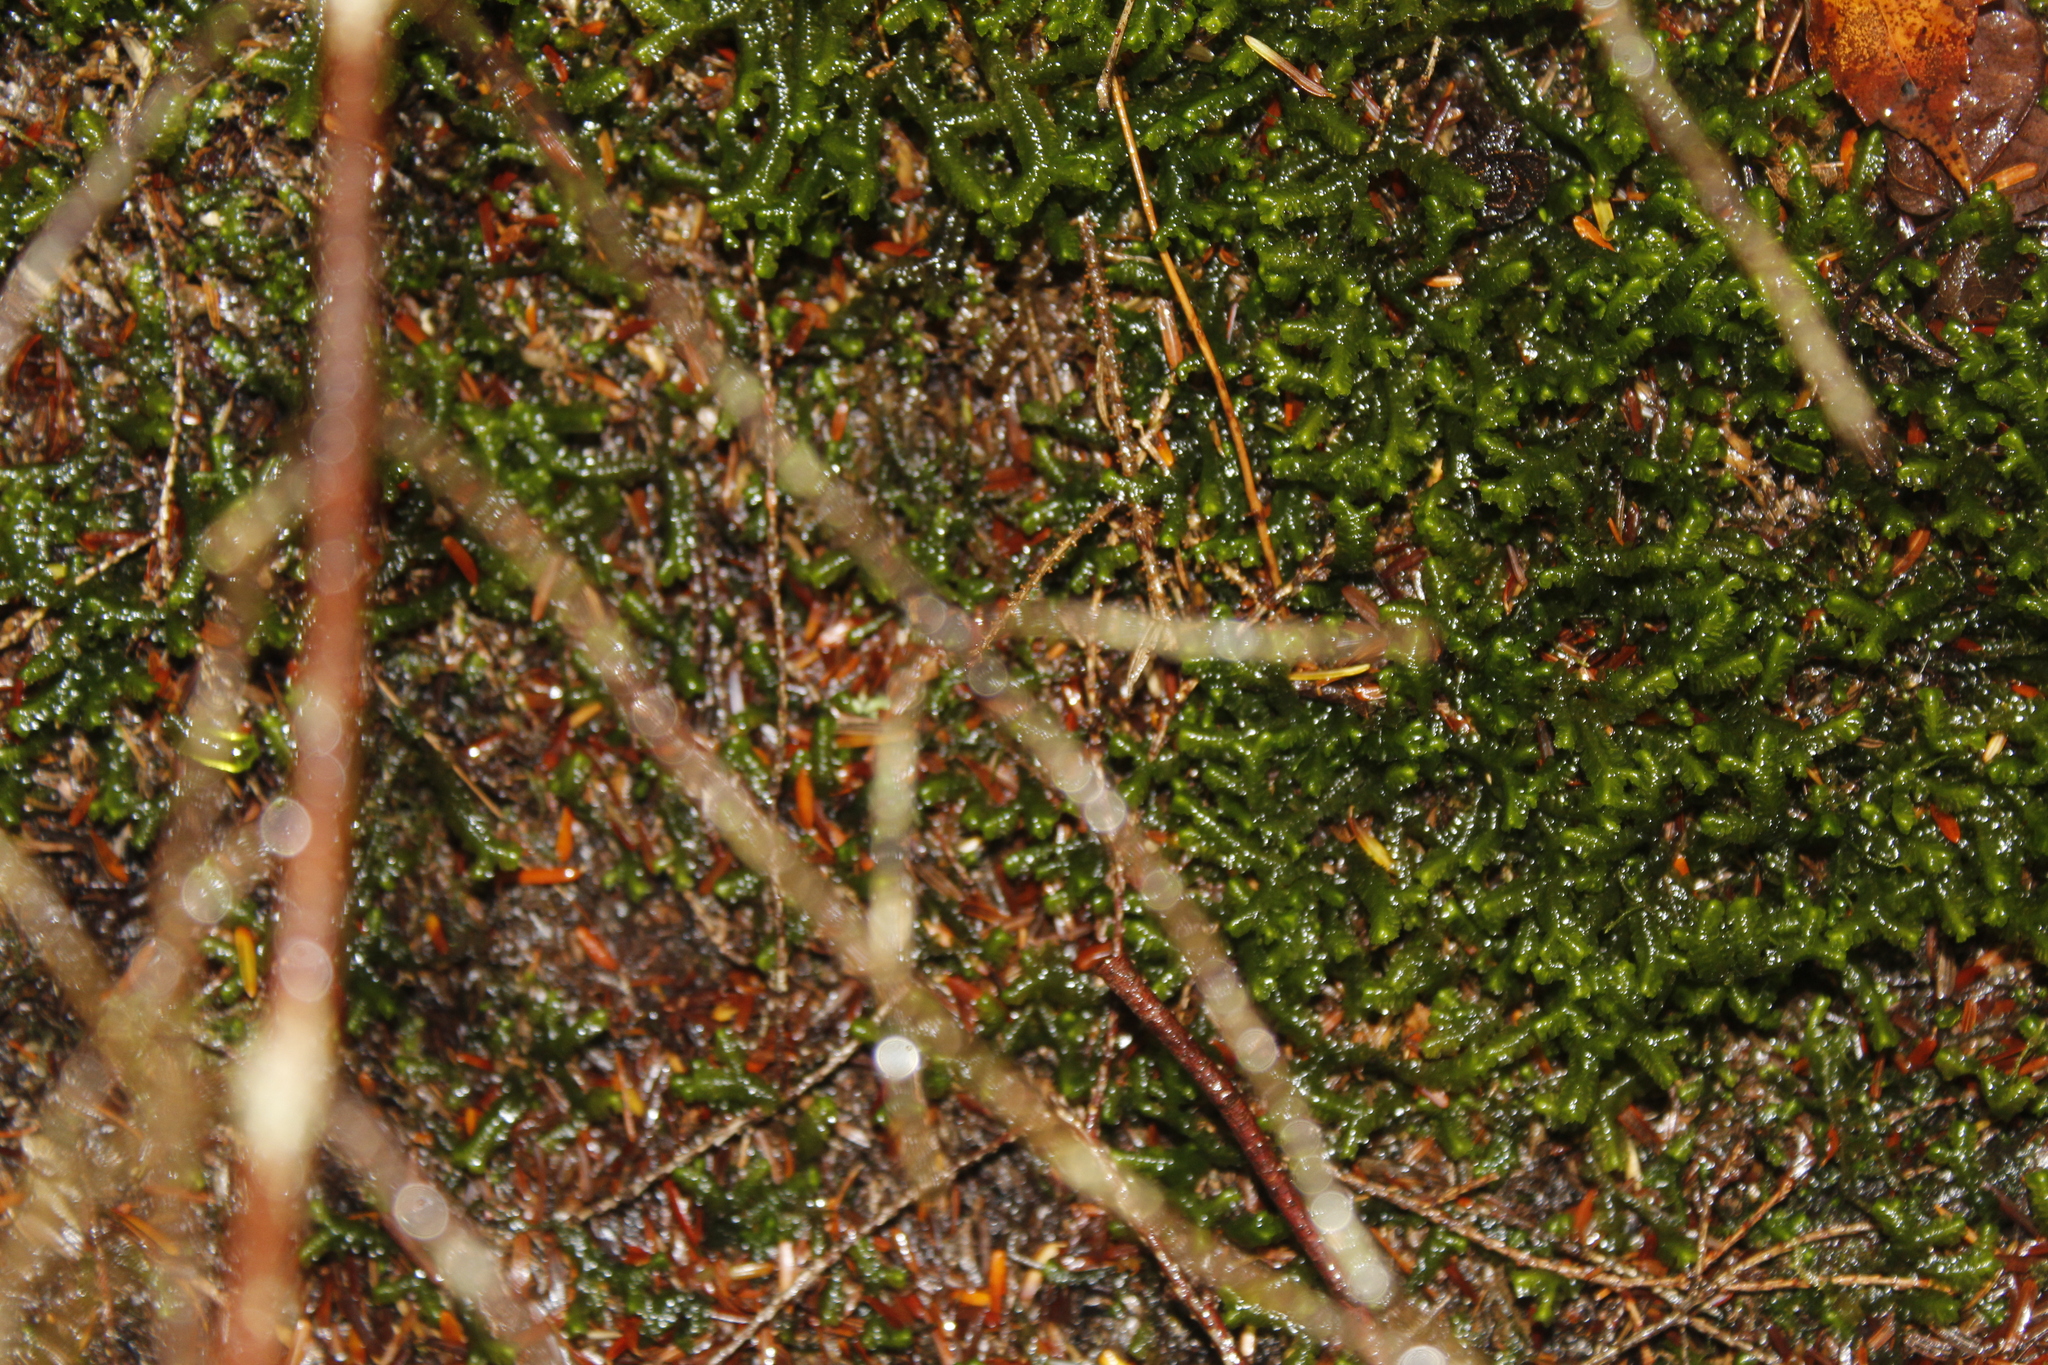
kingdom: Plantae
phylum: Marchantiophyta
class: Jungermanniopsida
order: Jungermanniales
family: Lepidoziaceae
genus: Bazzania
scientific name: Bazzania trilobata
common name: Three-lobed whipwort
